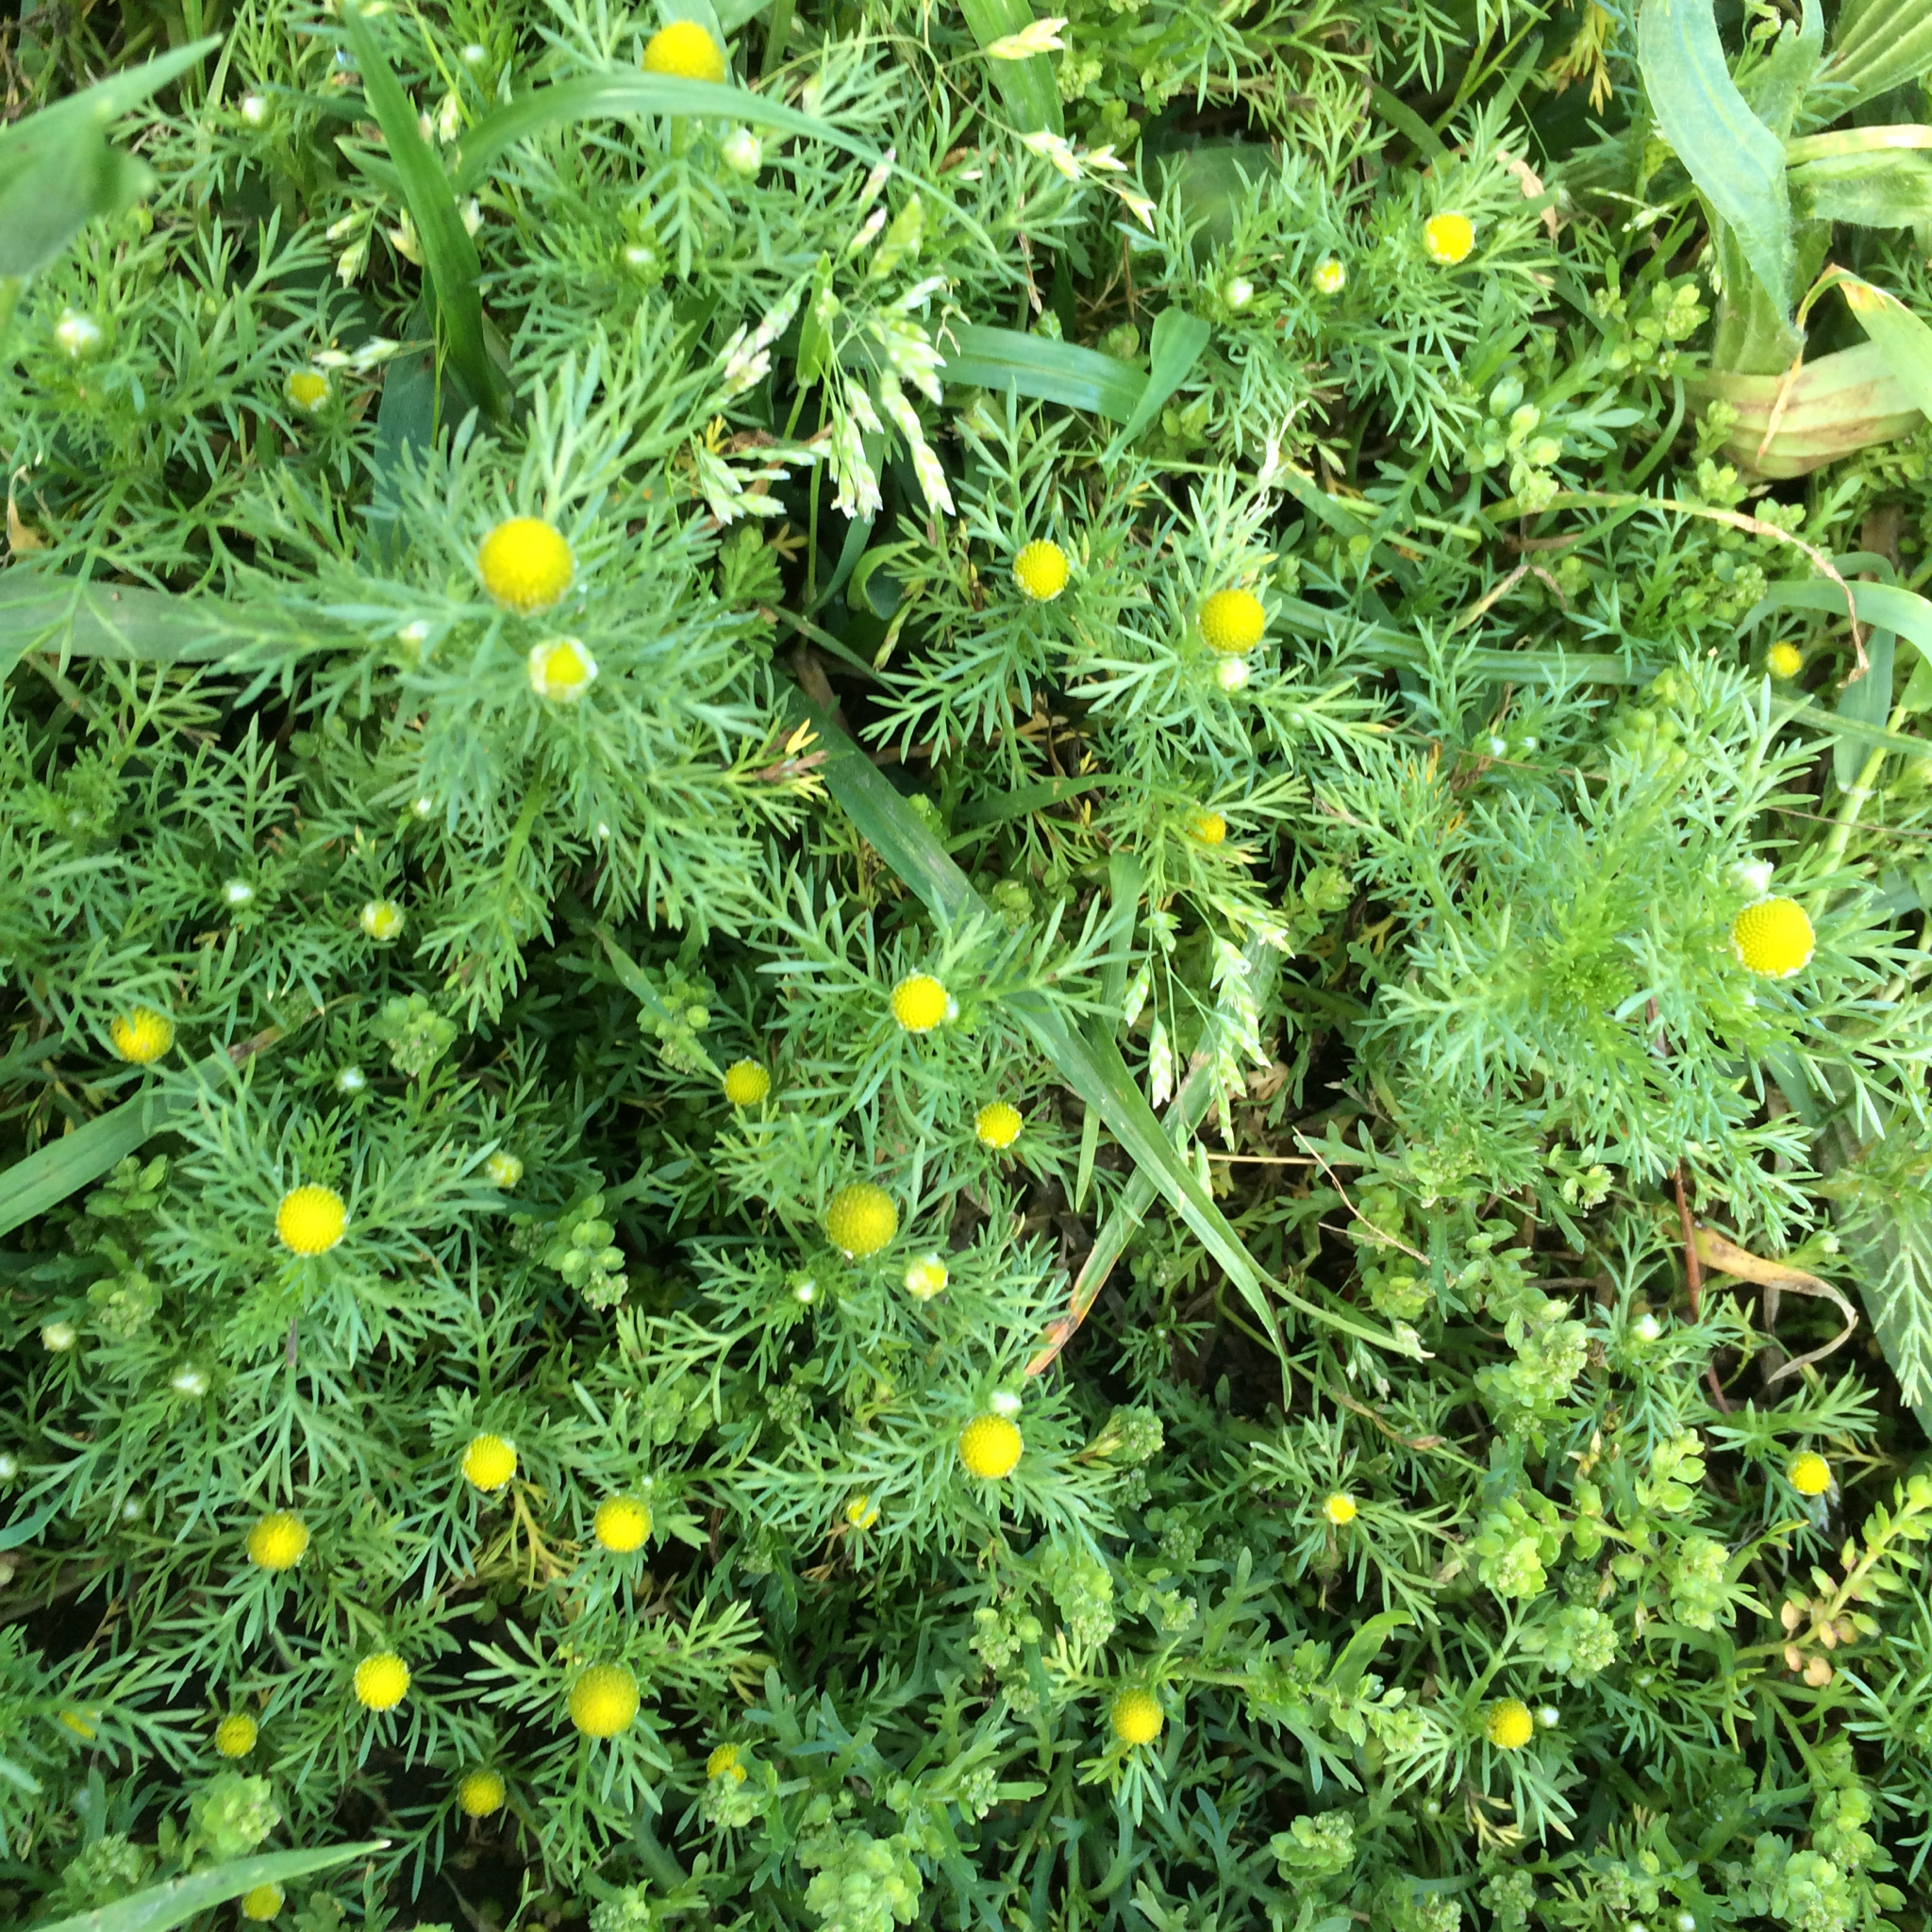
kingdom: Plantae
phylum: Tracheophyta
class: Magnoliopsida
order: Asterales
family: Asteraceae
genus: Matricaria
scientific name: Matricaria discoidea
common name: Disc mayweed
